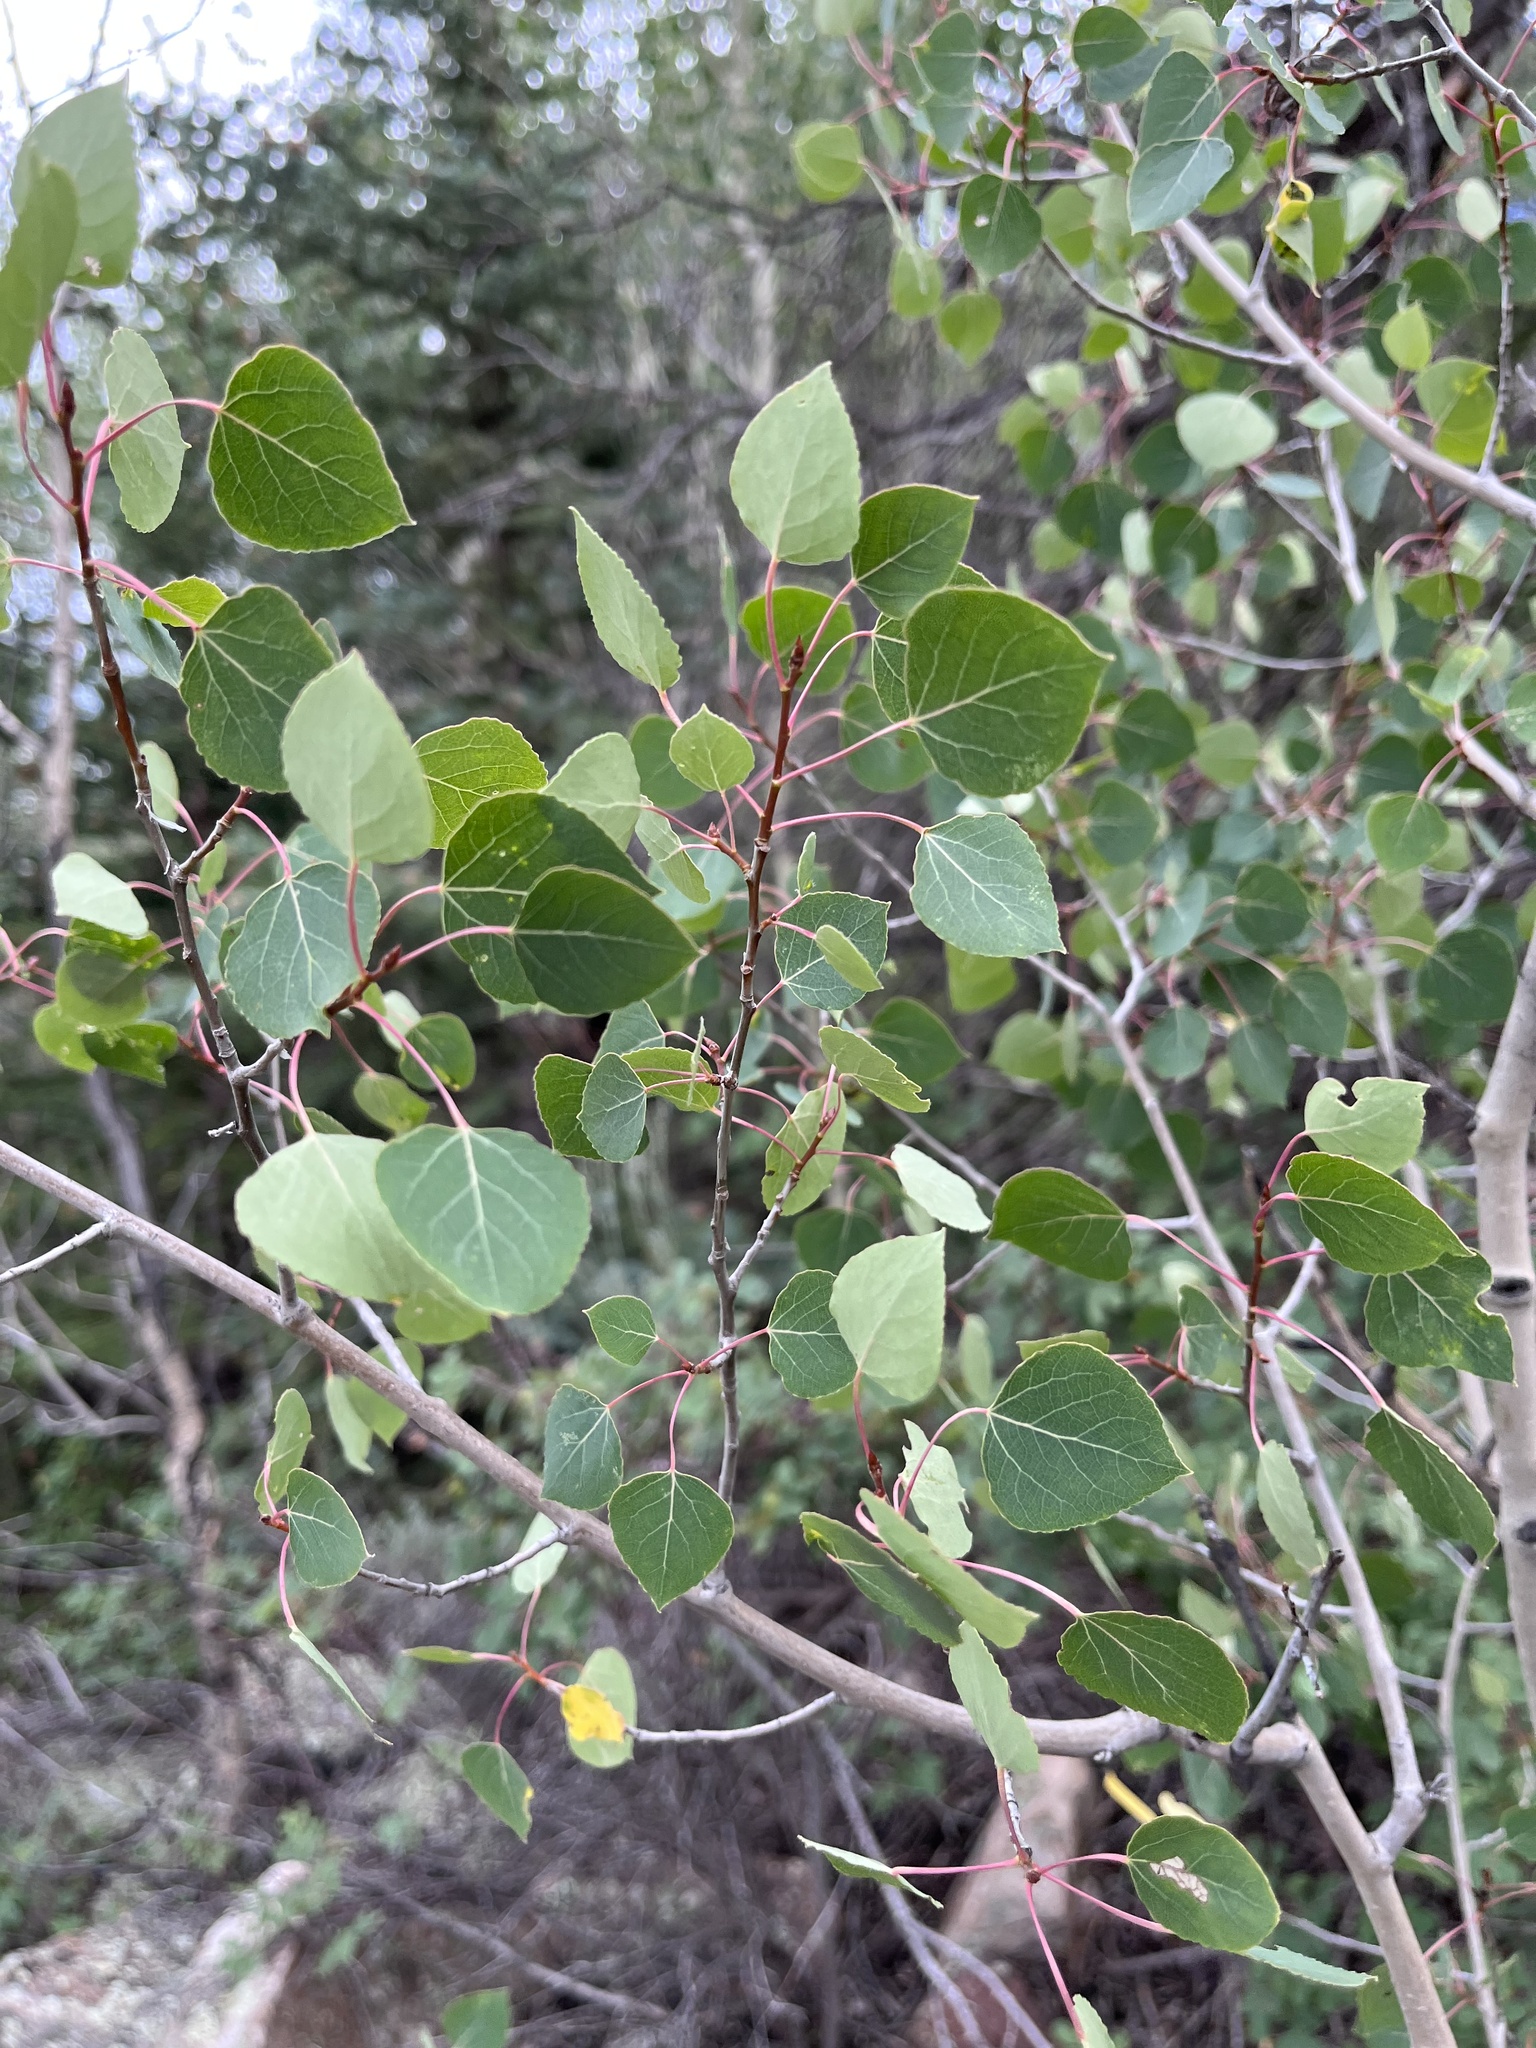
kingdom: Plantae
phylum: Tracheophyta
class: Magnoliopsida
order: Malpighiales
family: Salicaceae
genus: Populus
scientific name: Populus tremuloides
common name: Quaking aspen
